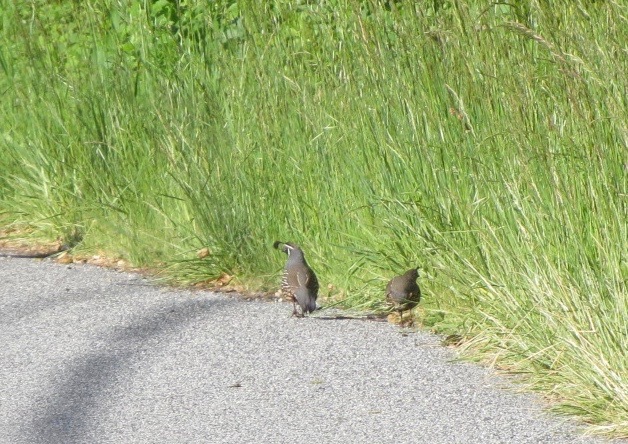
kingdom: Animalia
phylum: Chordata
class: Aves
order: Galliformes
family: Odontophoridae
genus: Callipepla
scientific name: Callipepla californica
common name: California quail
